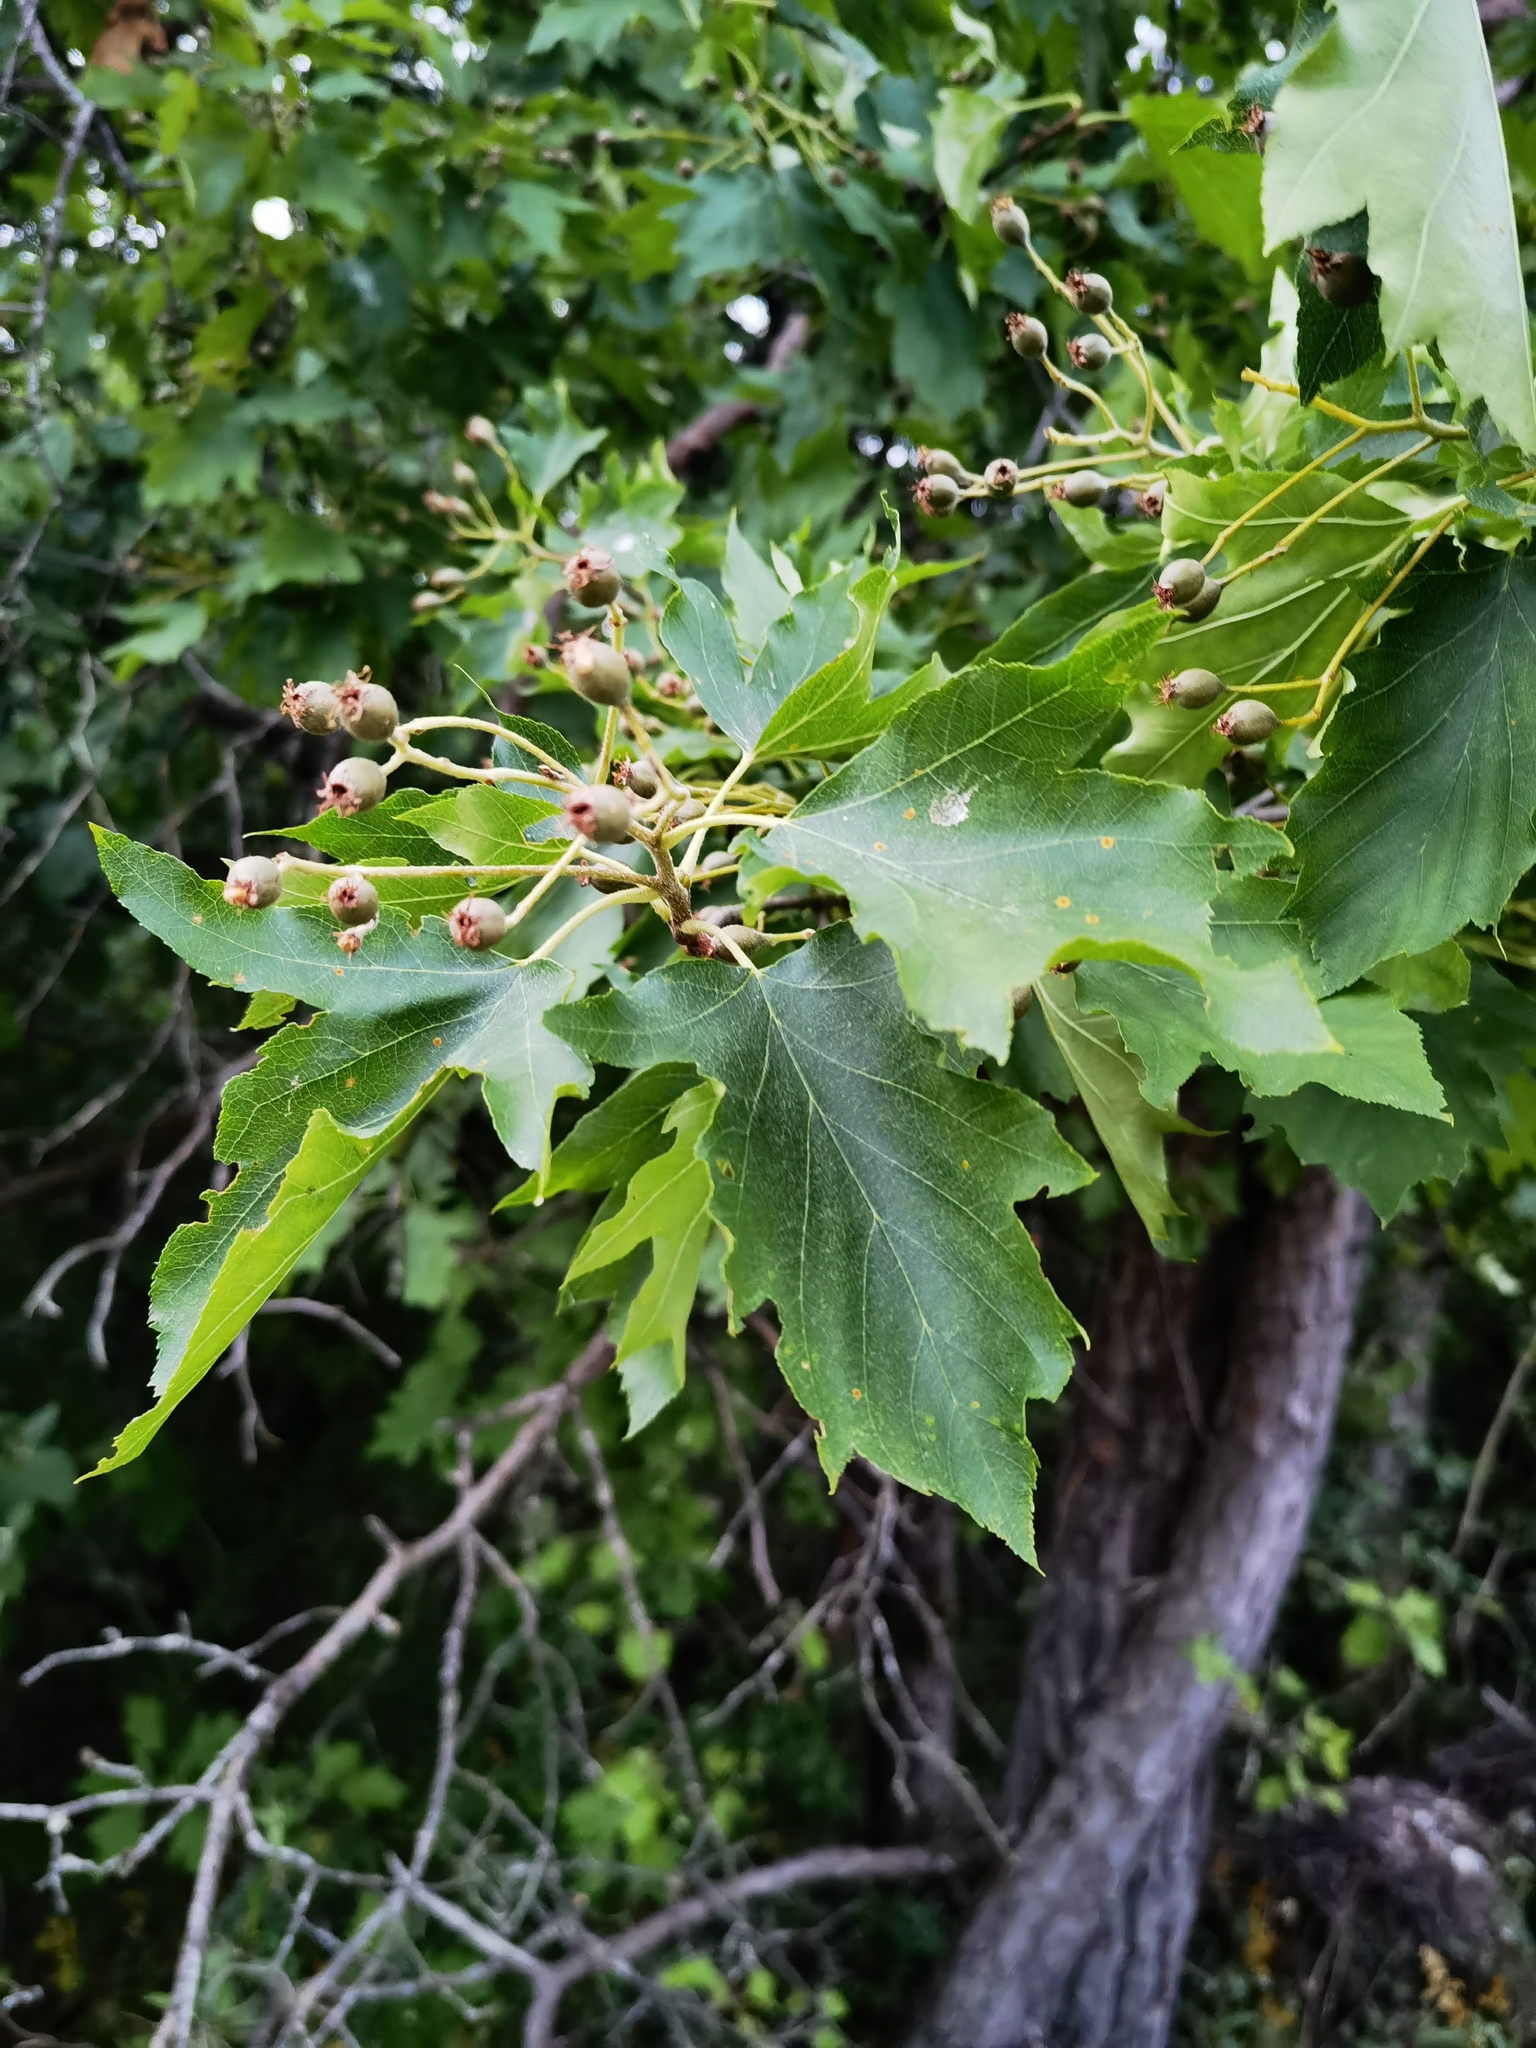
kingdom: Plantae
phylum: Tracheophyta
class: Magnoliopsida
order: Rosales
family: Rosaceae
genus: Torminalis
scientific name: Torminalis glaberrima
